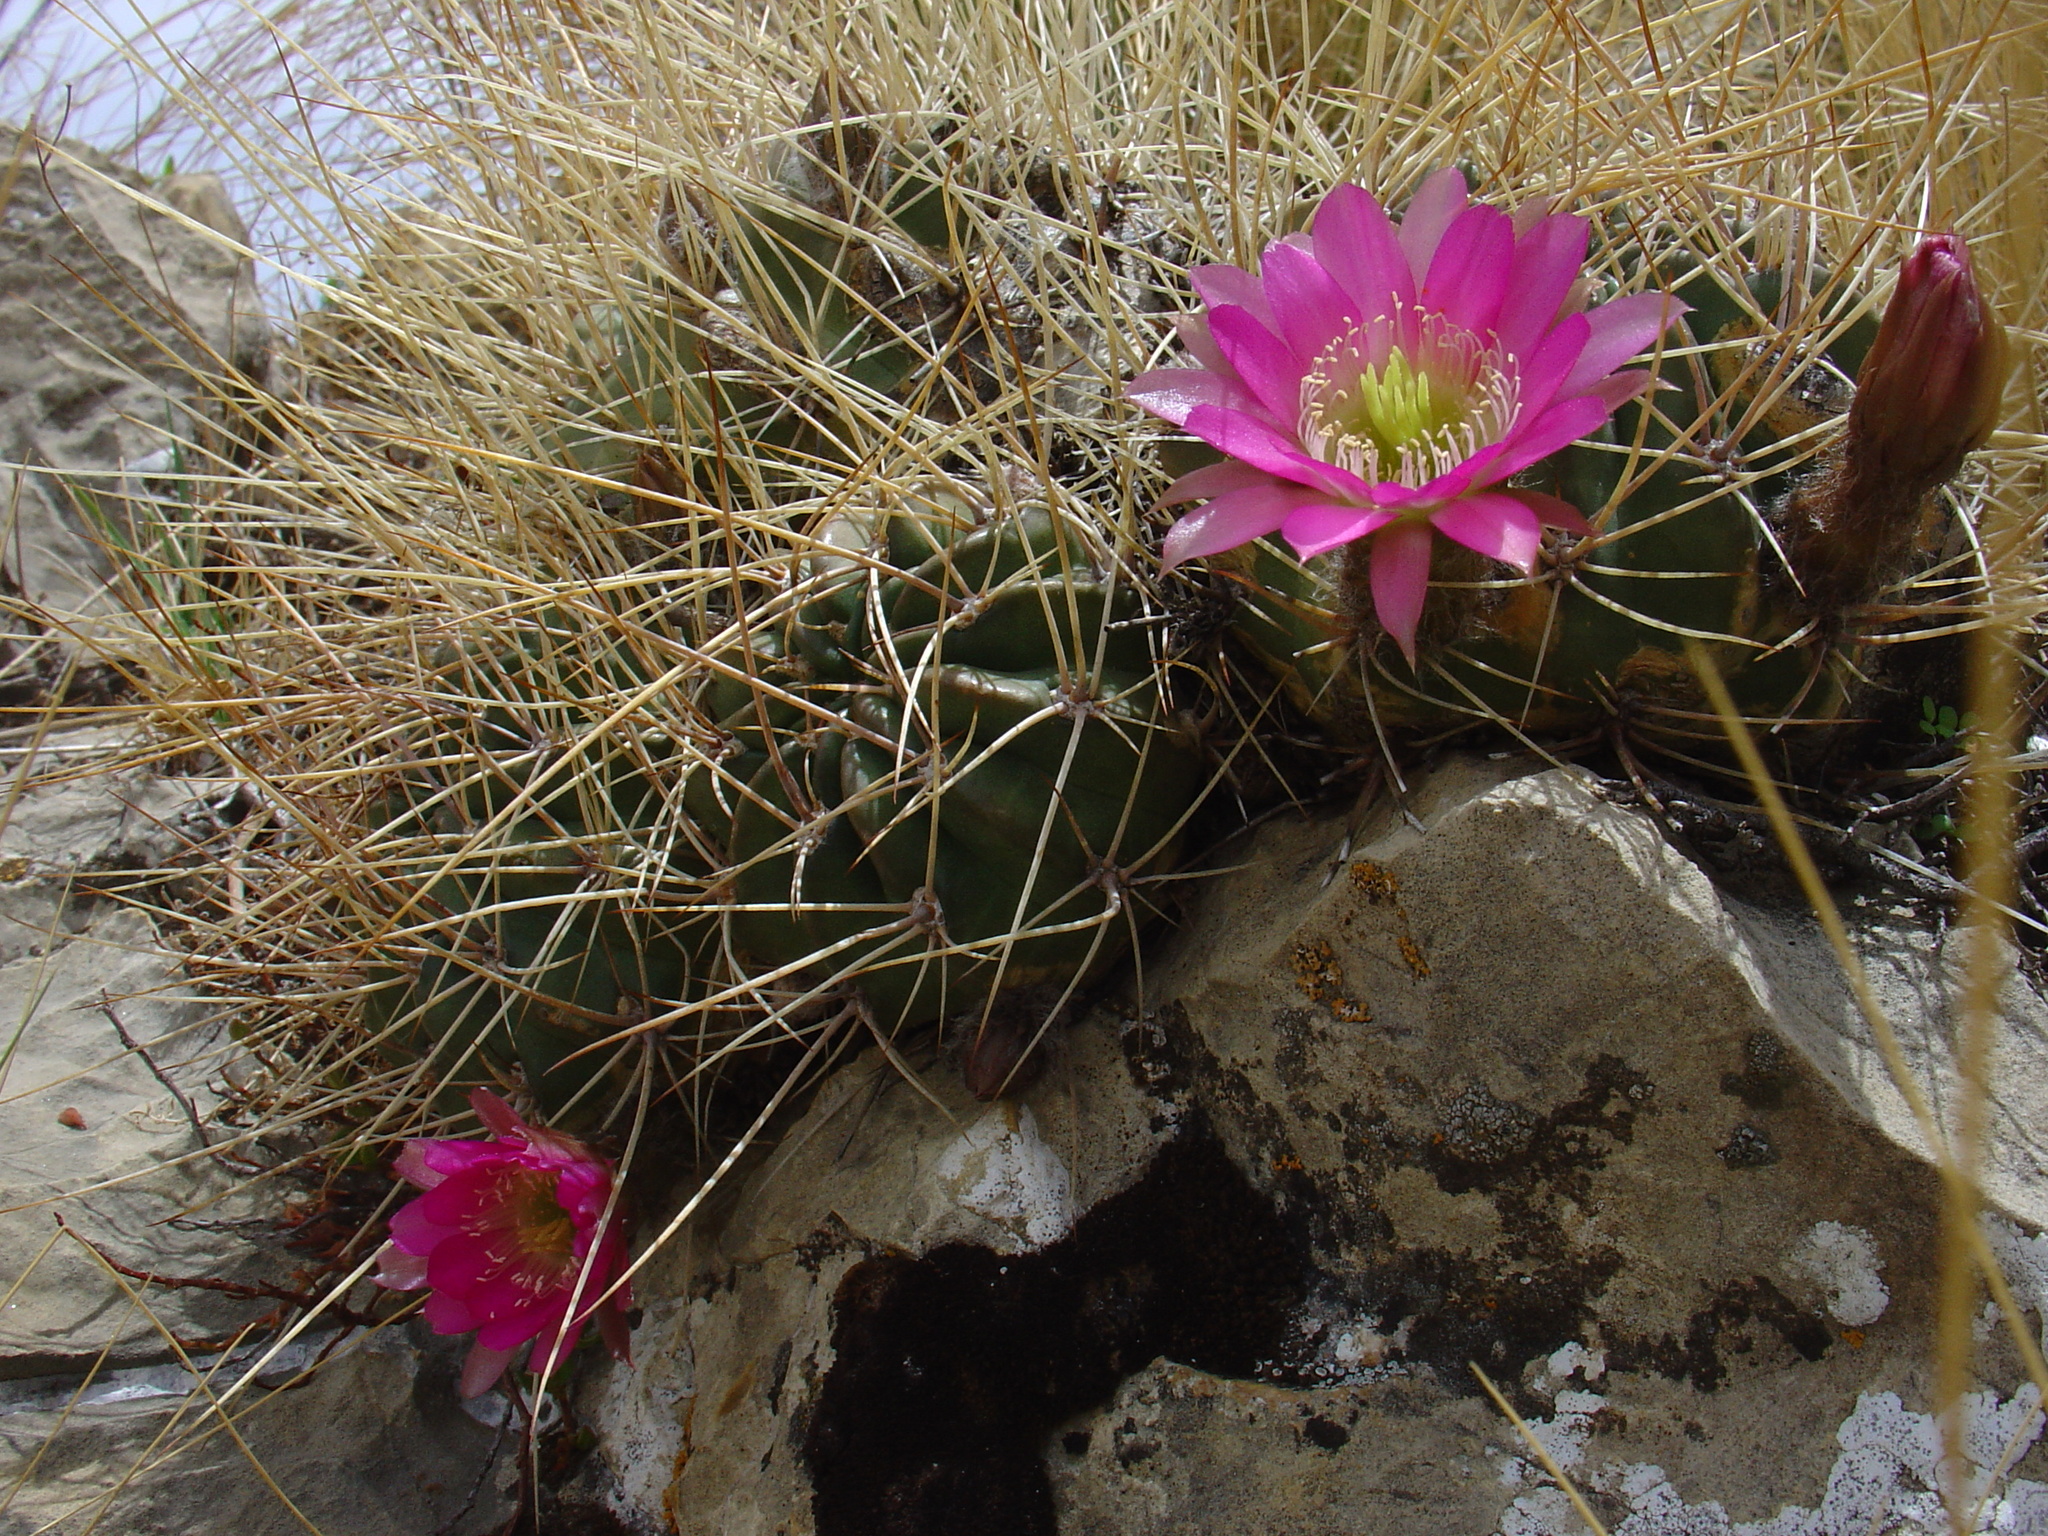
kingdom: Plantae
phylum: Tracheophyta
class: Magnoliopsida
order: Caryophyllales
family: Cactaceae
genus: Lobivia
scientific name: Lobivia pentlandii
